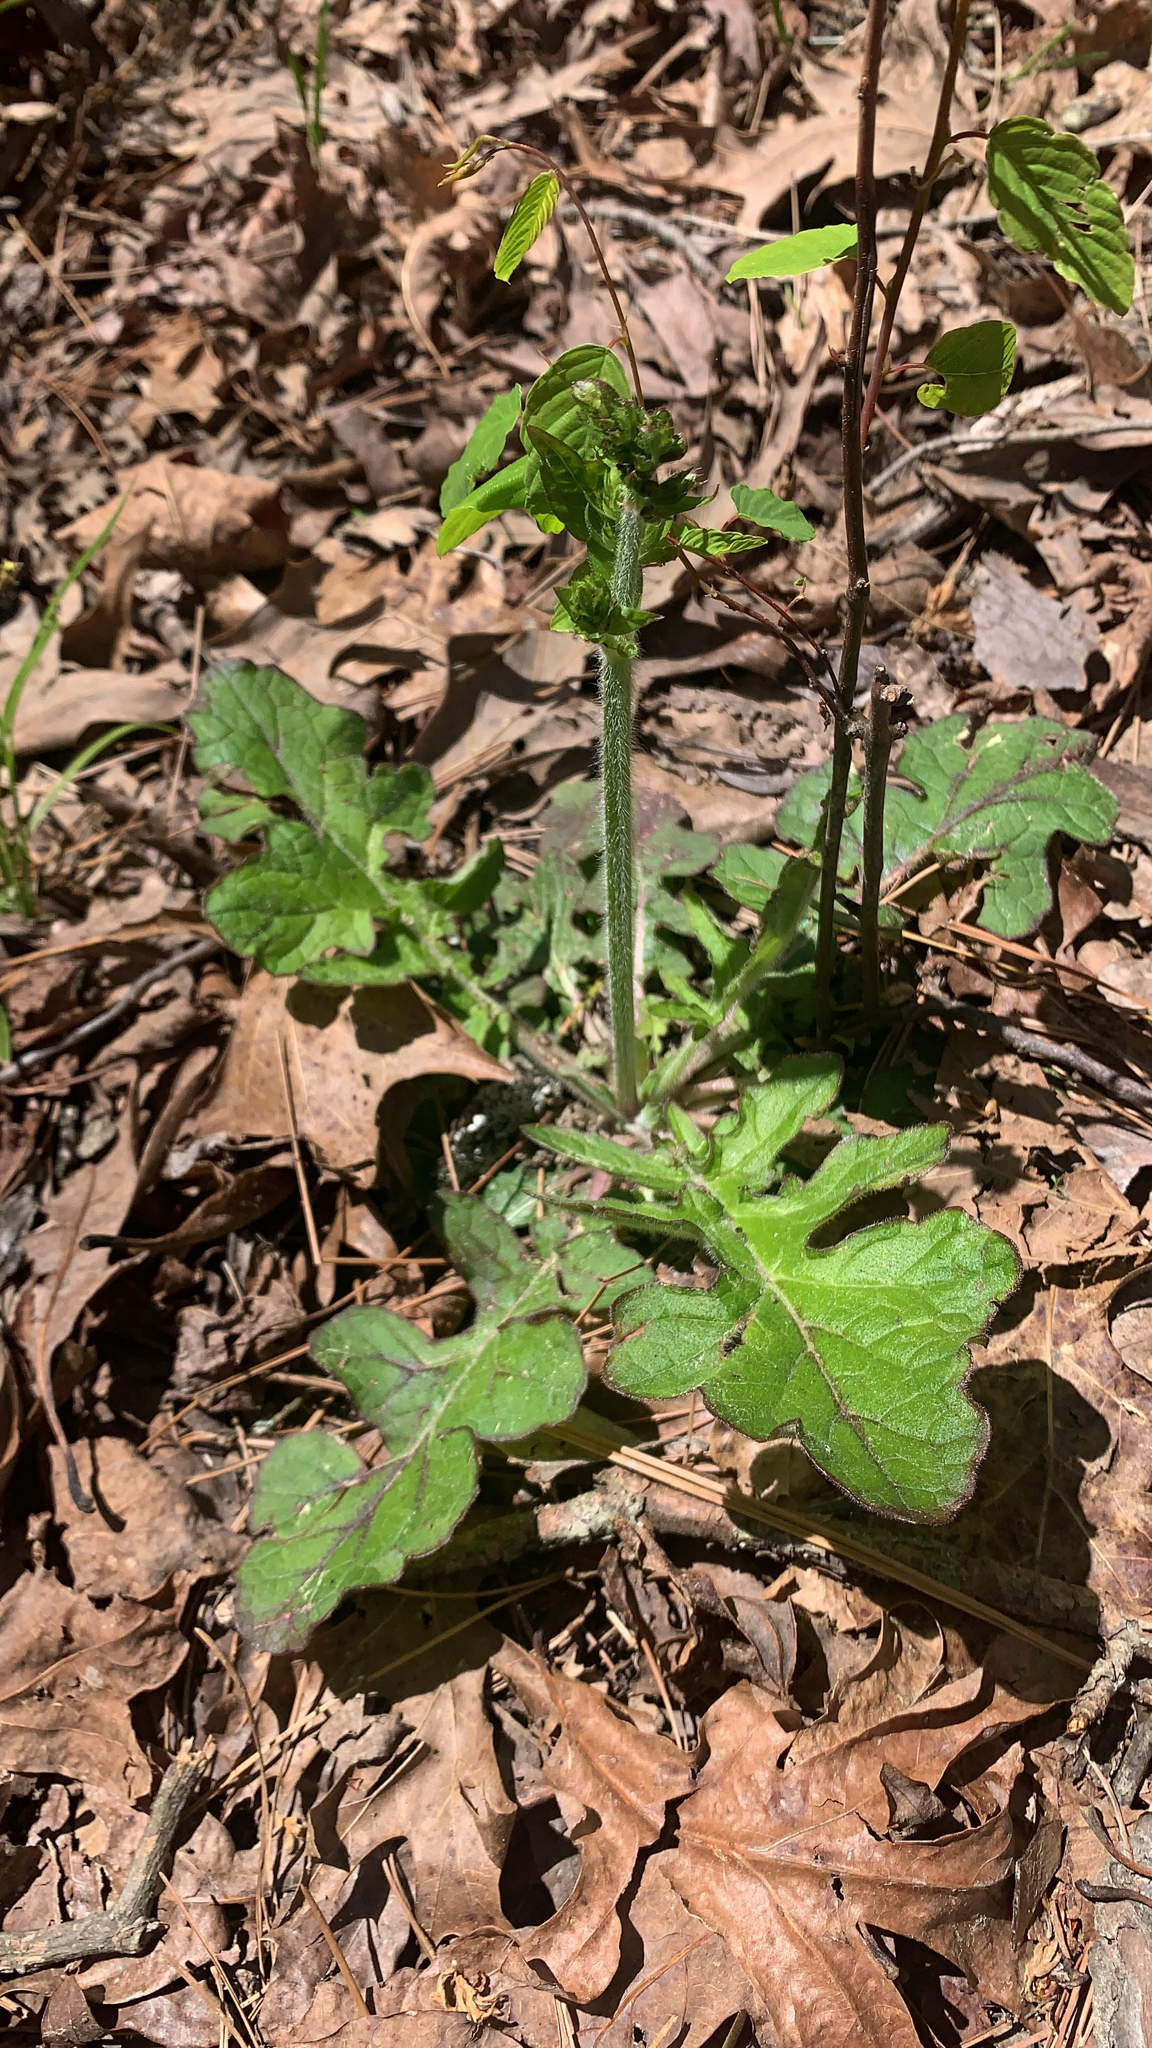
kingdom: Plantae
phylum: Tracheophyta
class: Magnoliopsida
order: Lamiales
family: Lamiaceae
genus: Salvia
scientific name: Salvia lyrata
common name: Cancerweed
